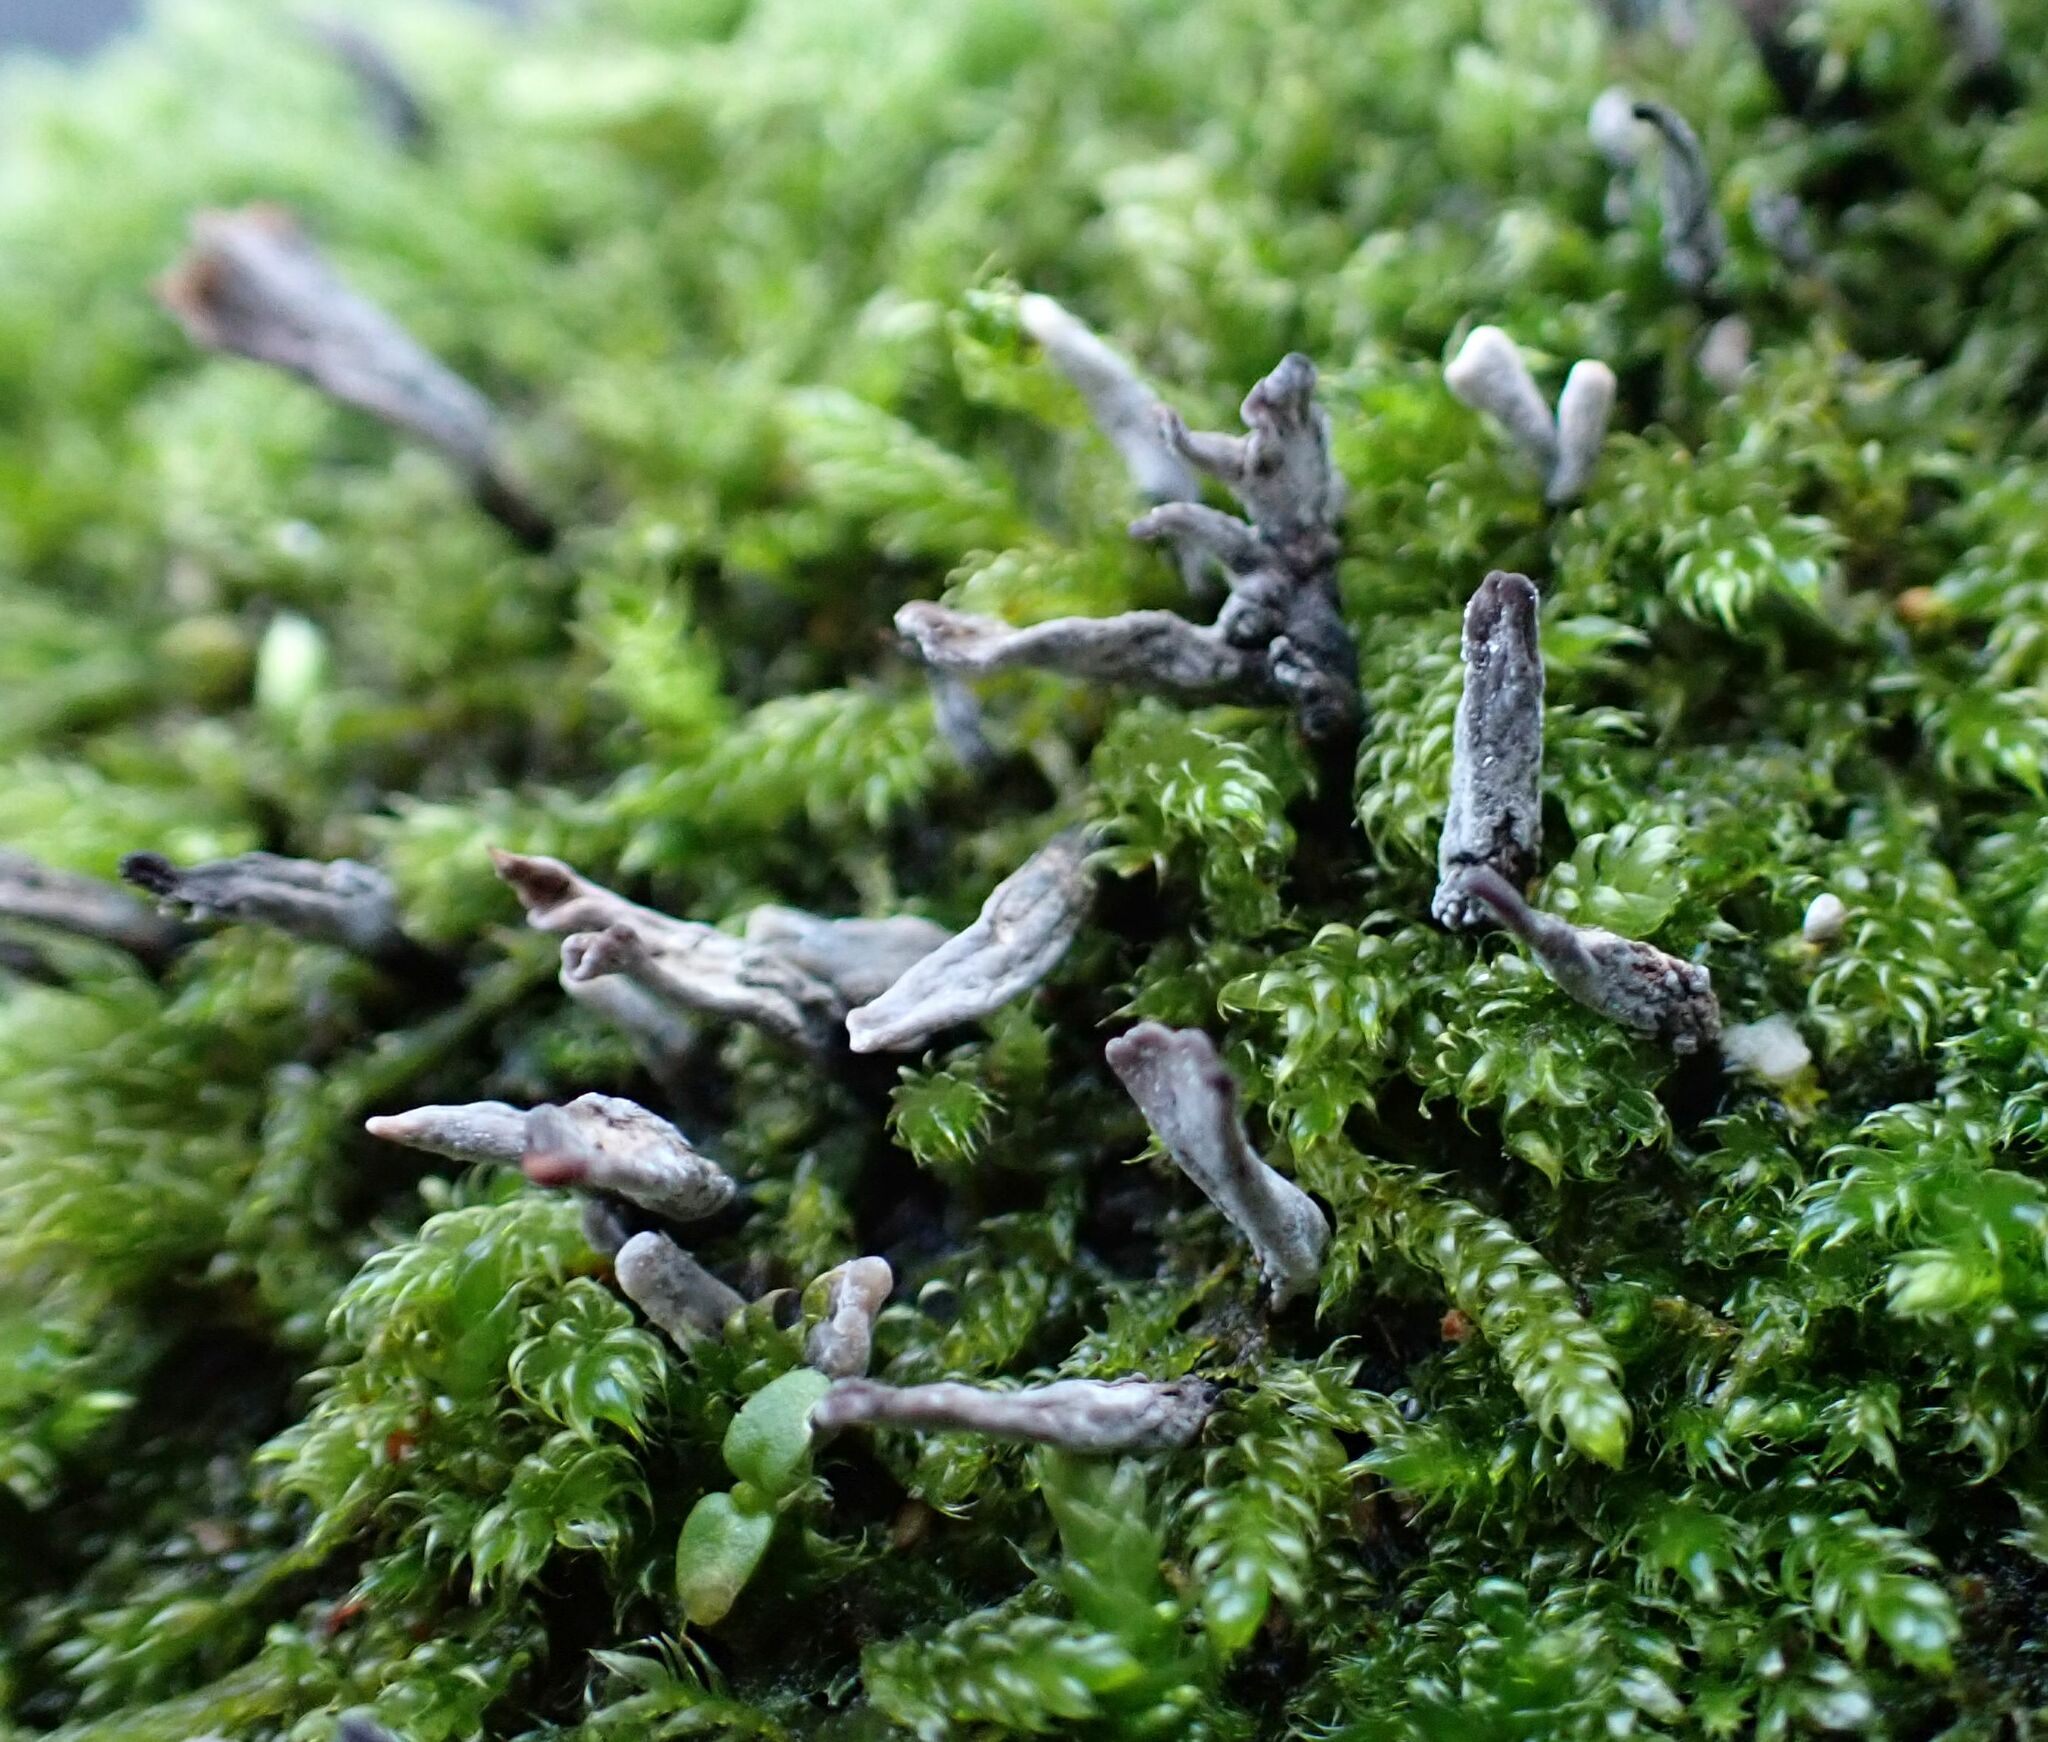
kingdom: Fungi
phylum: Ascomycota
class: Sordariomycetes
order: Xylariales
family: Xylariaceae
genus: Xylaria
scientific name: Xylaria hypoxylon
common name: Candle-snuff fungus
